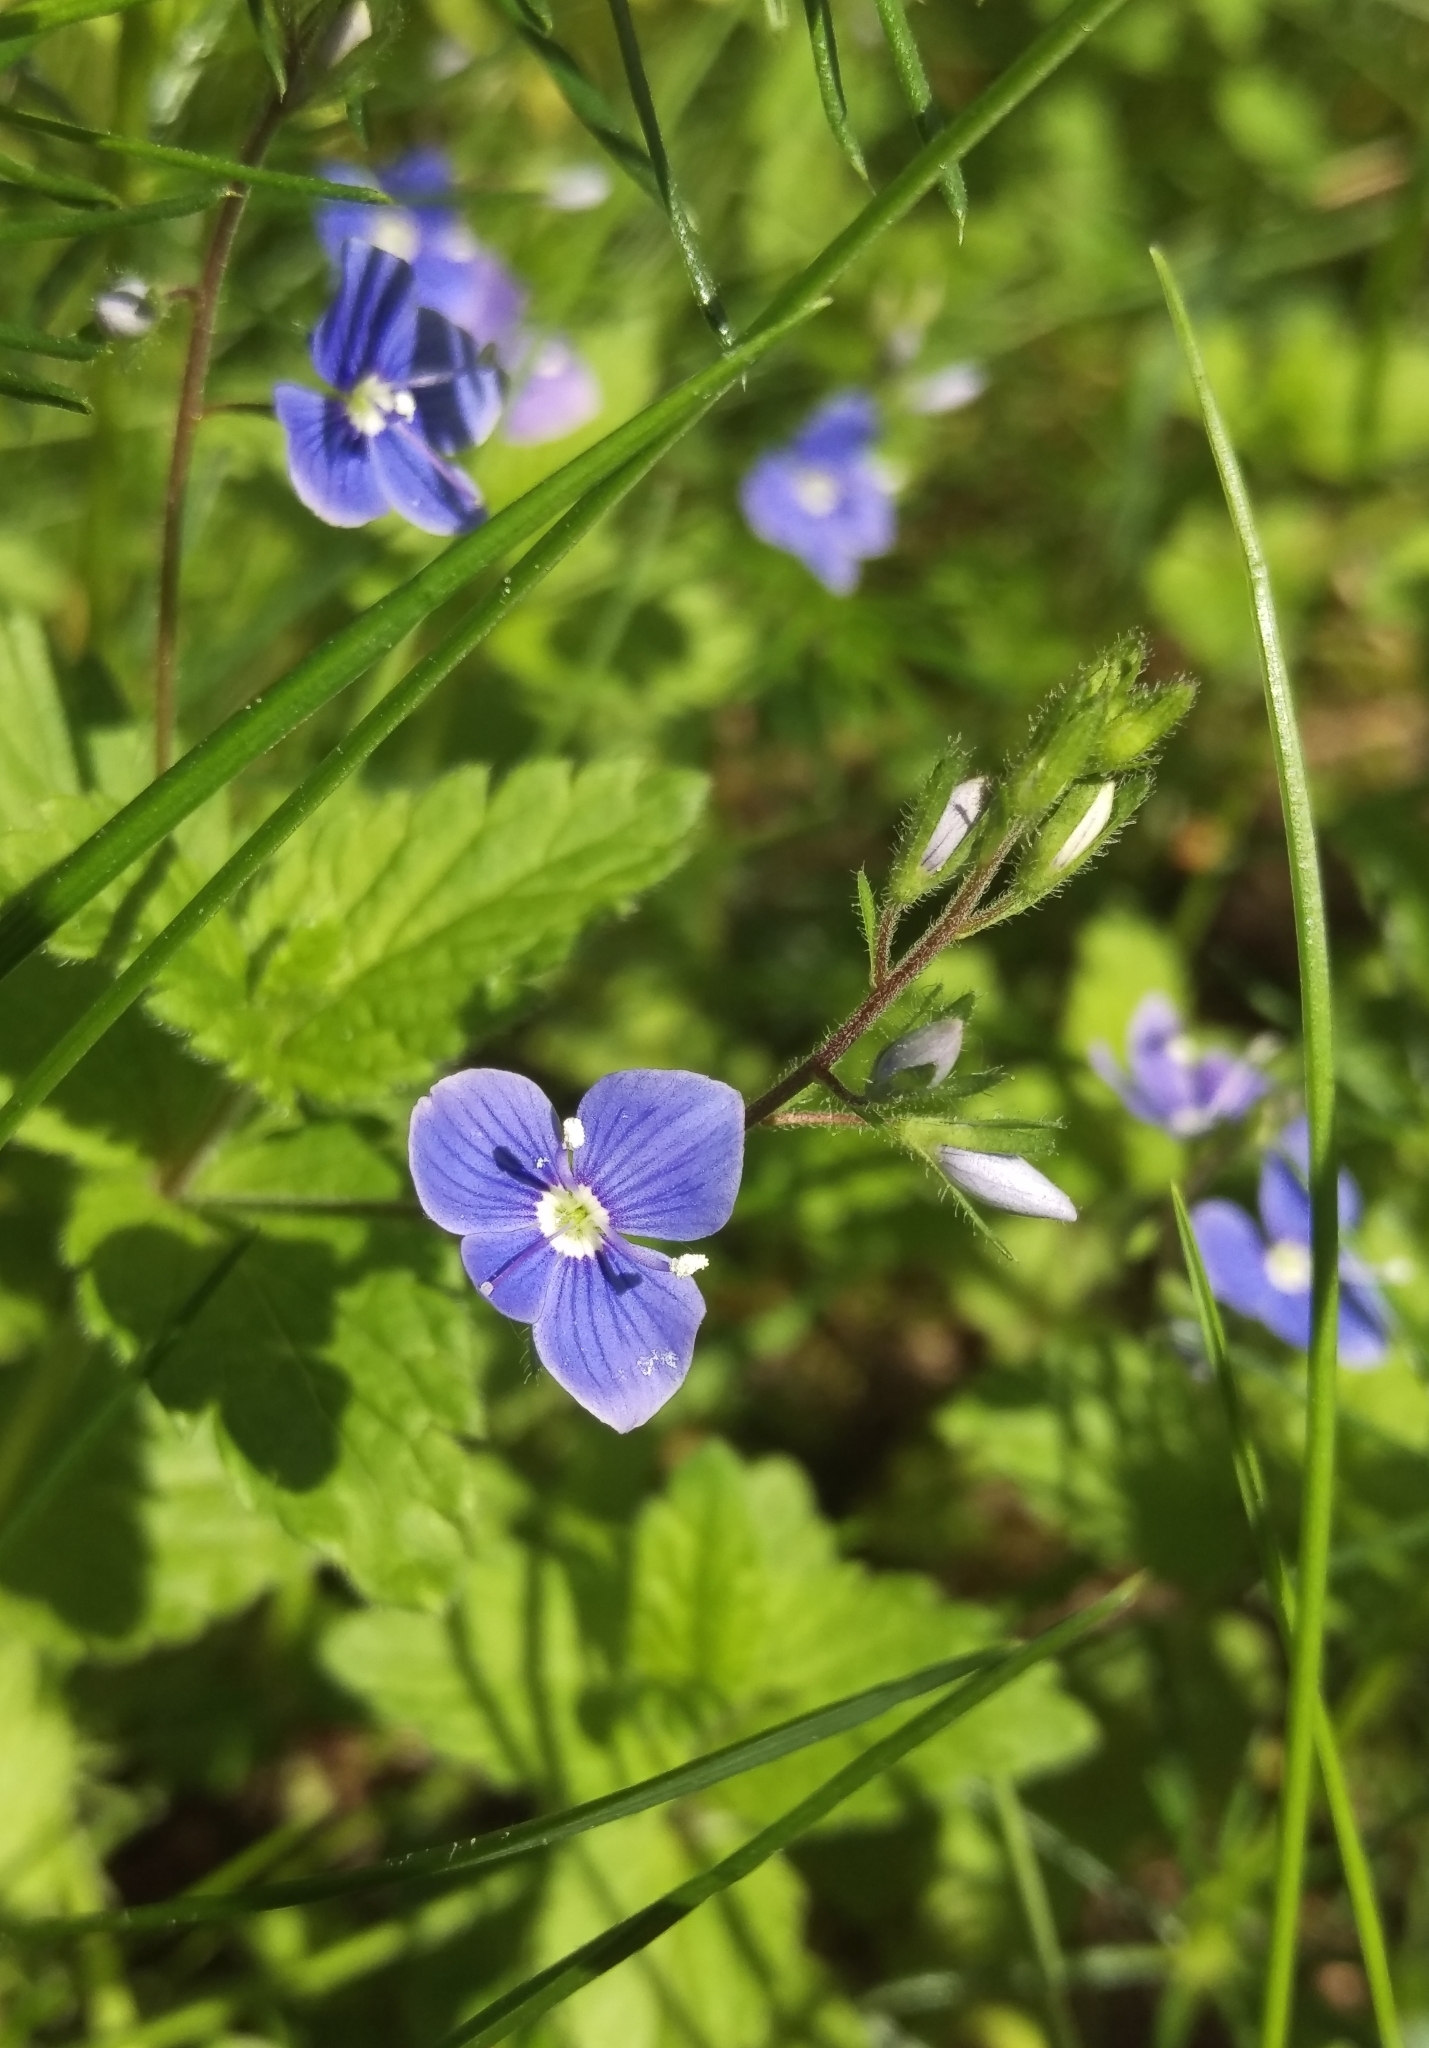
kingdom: Plantae
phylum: Tracheophyta
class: Magnoliopsida
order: Lamiales
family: Plantaginaceae
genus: Veronica
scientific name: Veronica chamaedrys
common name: Germander speedwell
